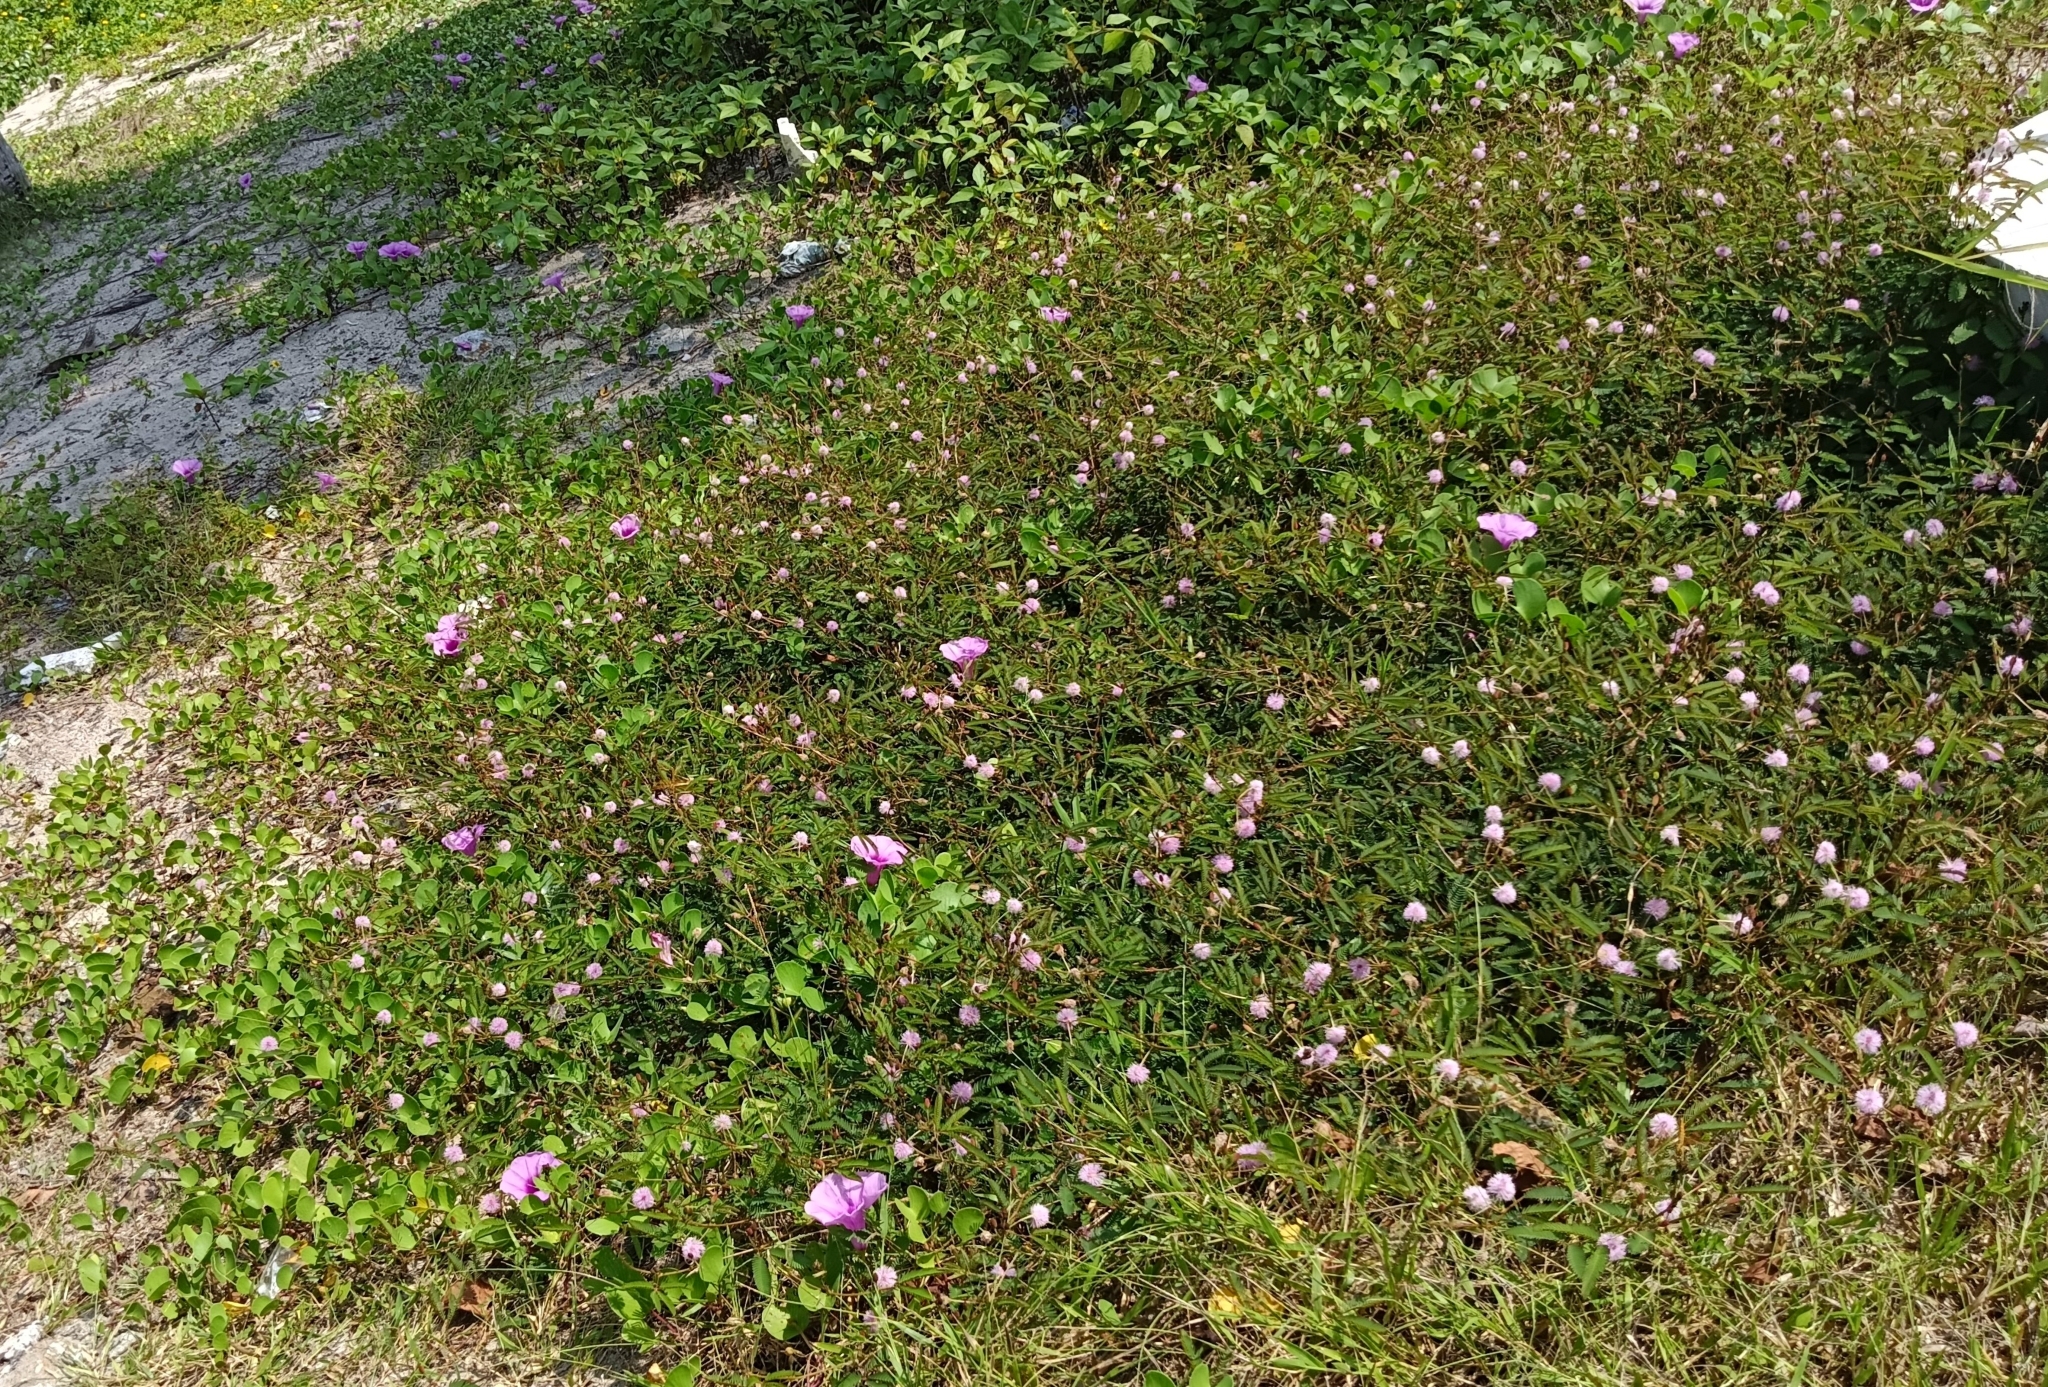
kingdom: Plantae
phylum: Tracheophyta
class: Magnoliopsida
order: Fabales
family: Fabaceae
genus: Mimosa
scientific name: Mimosa pudica
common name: Sensitive plant
